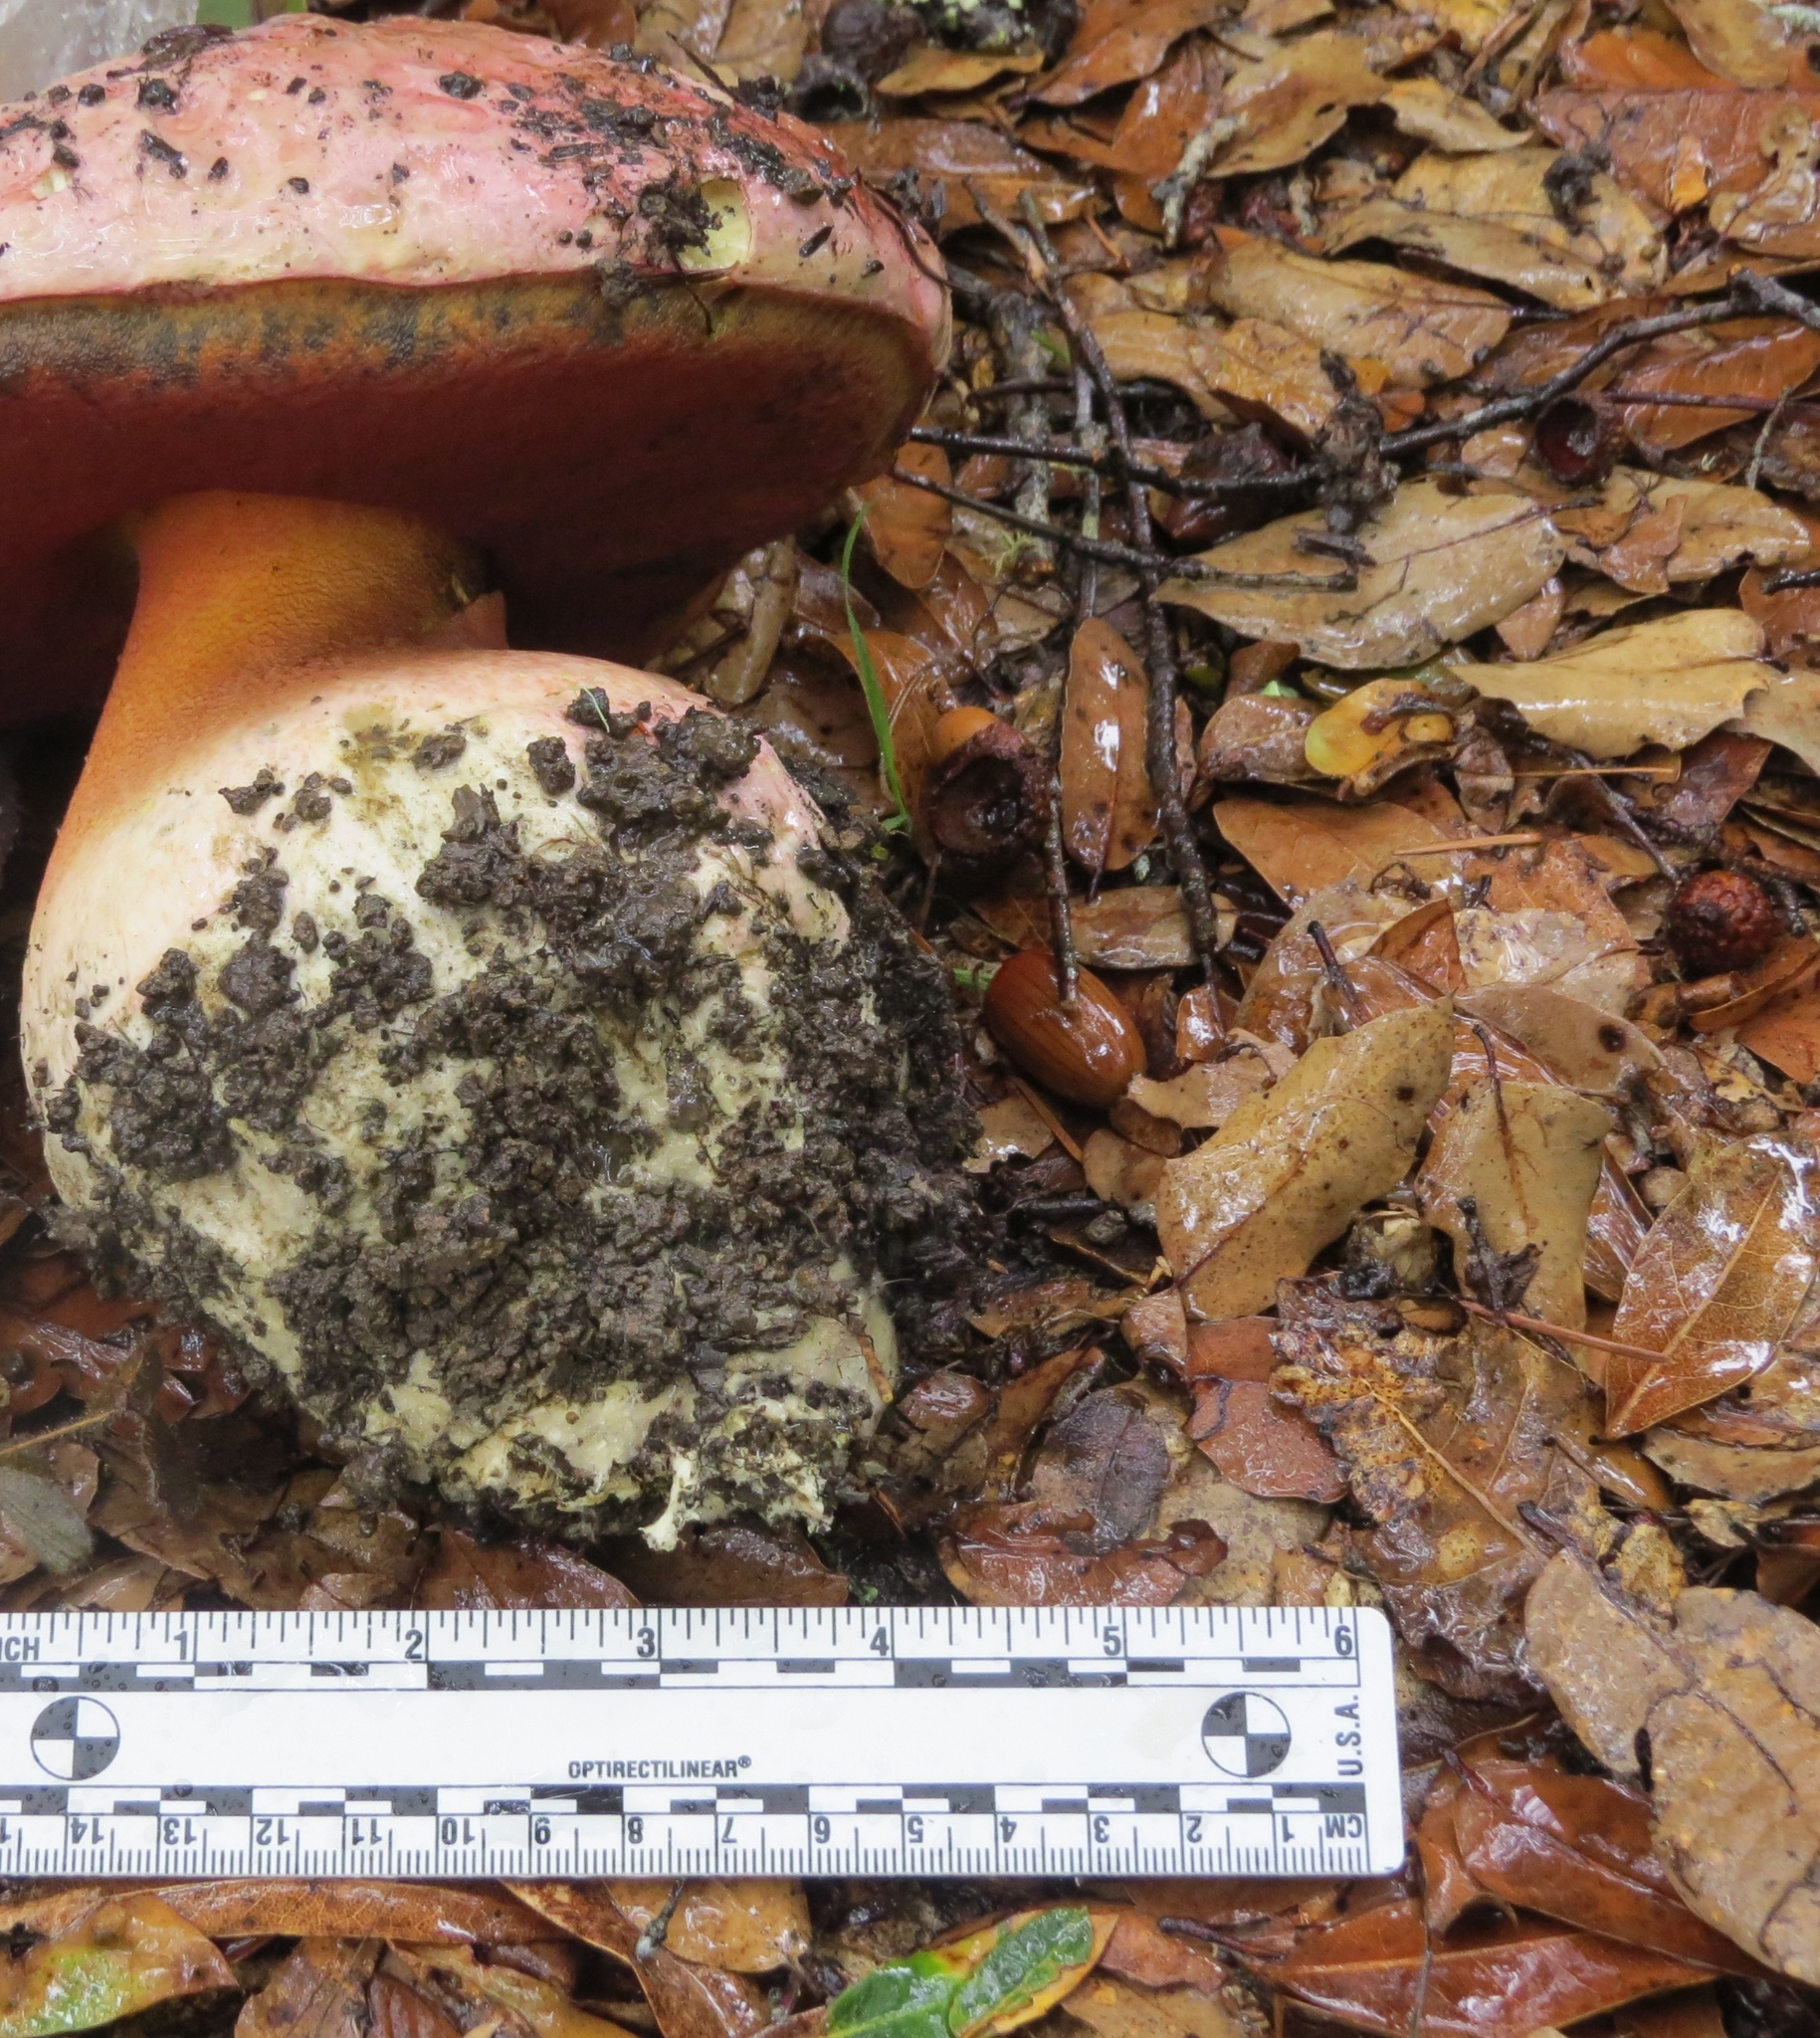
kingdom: Fungi
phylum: Basidiomycota
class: Agaricomycetes
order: Boletales
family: Boletaceae
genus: Rubroboletus
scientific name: Rubroboletus eastwoodiae
